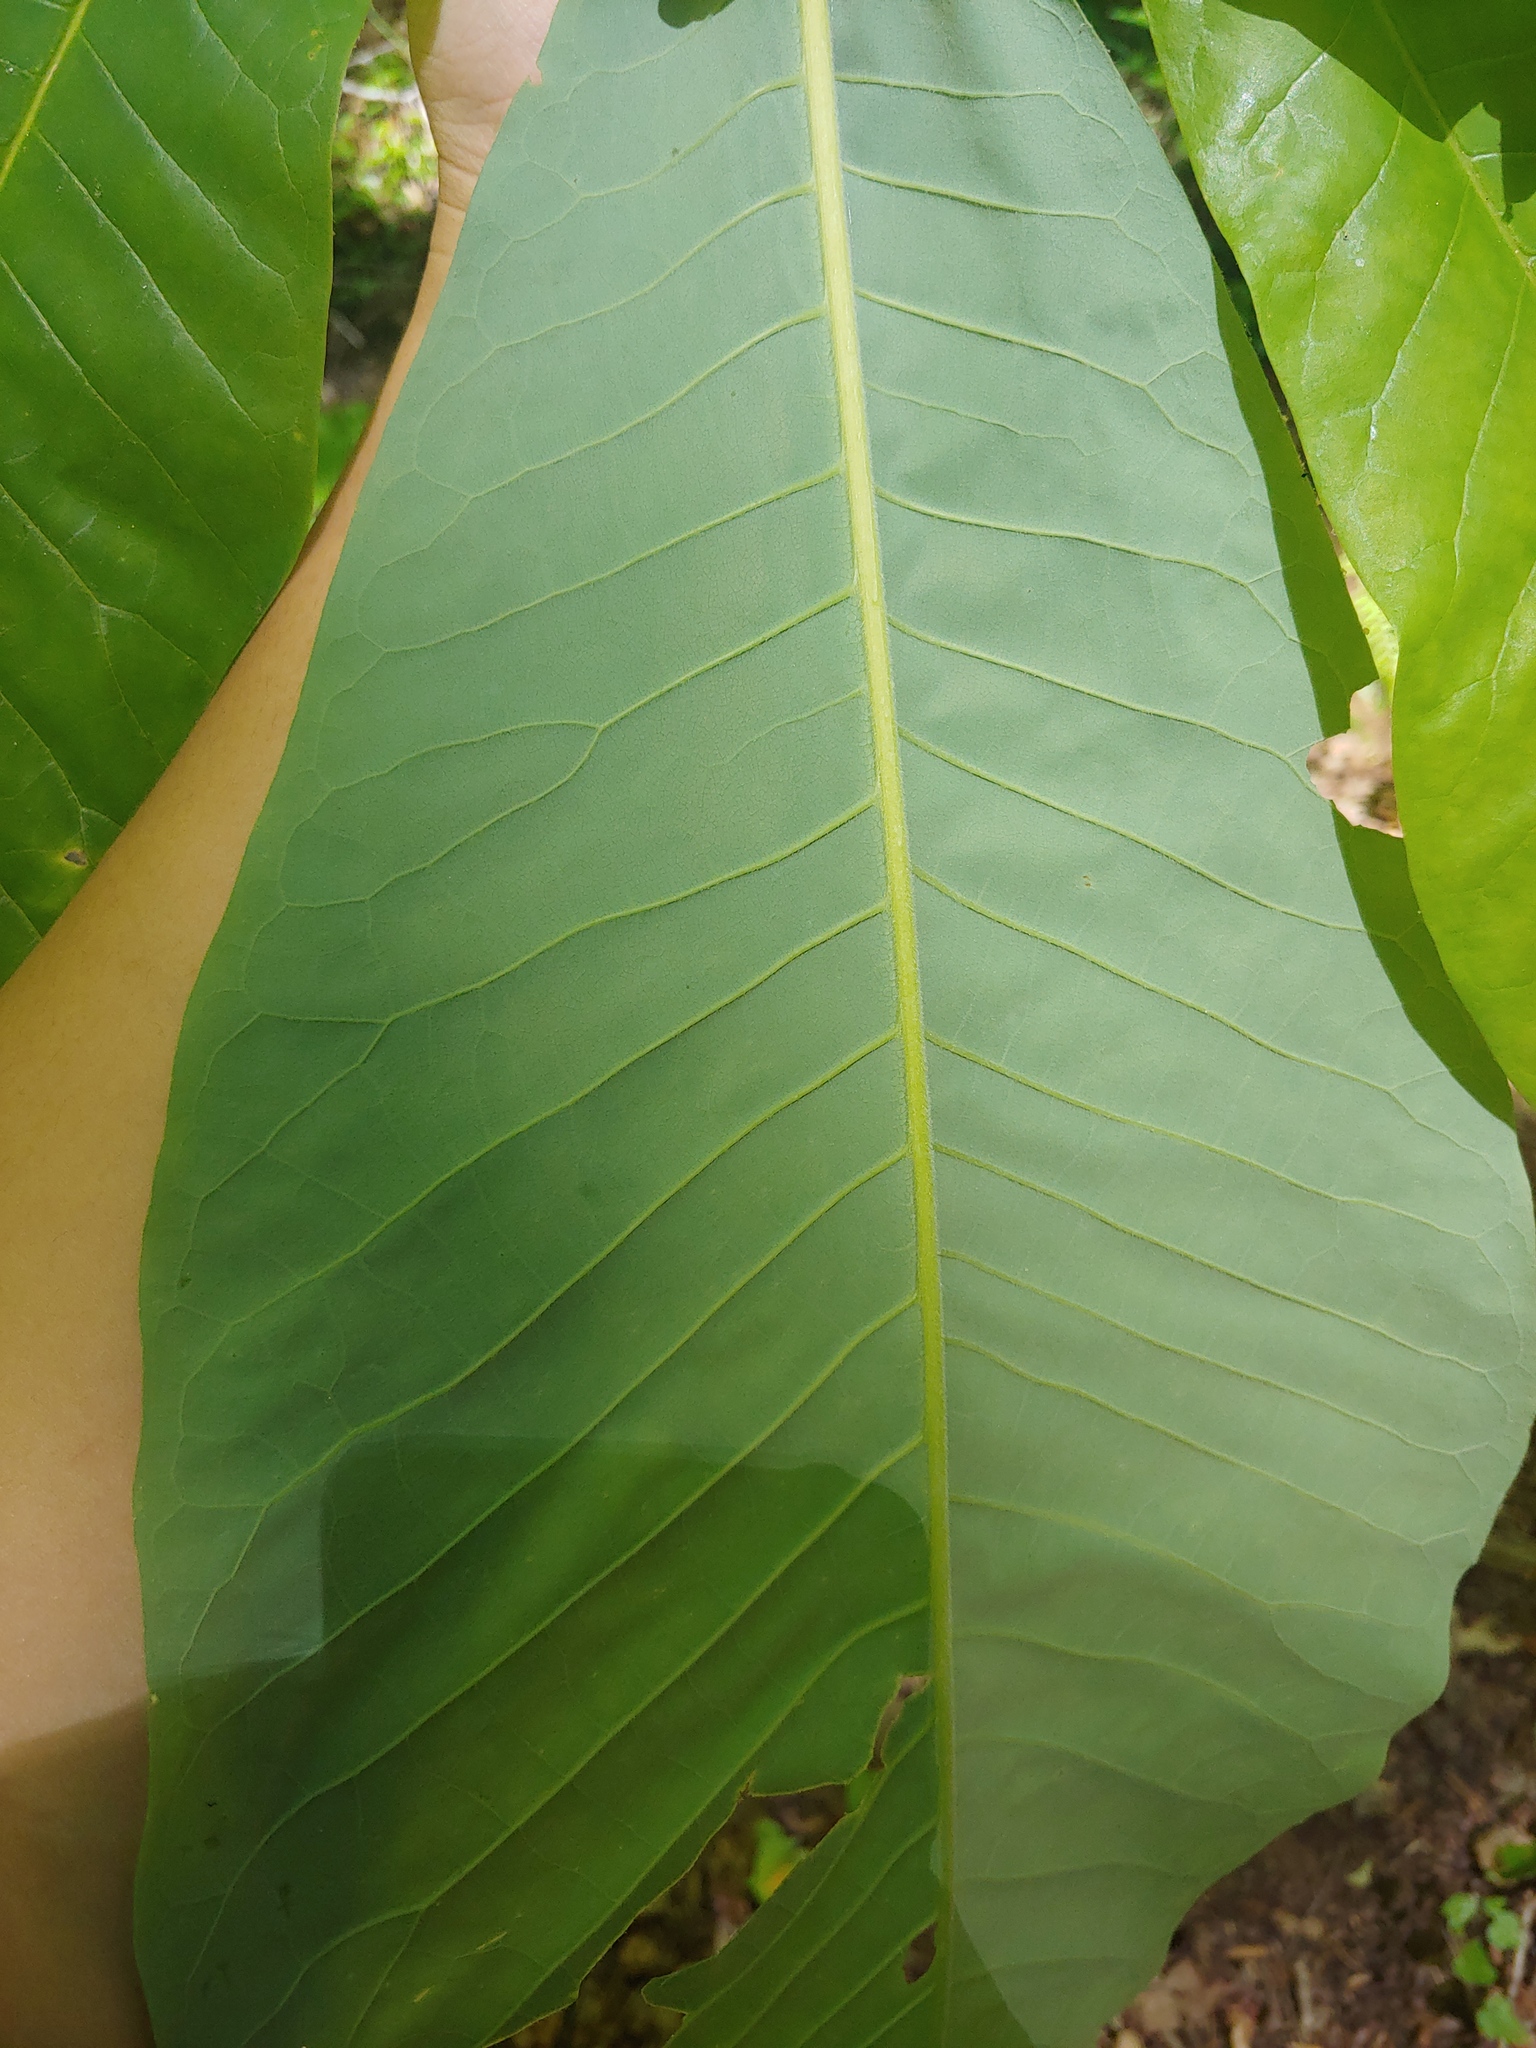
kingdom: Plantae
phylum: Tracheophyta
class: Magnoliopsida
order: Magnoliales
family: Magnoliaceae
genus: Magnolia
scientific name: Magnolia tripetala
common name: Umbrella magnolia
